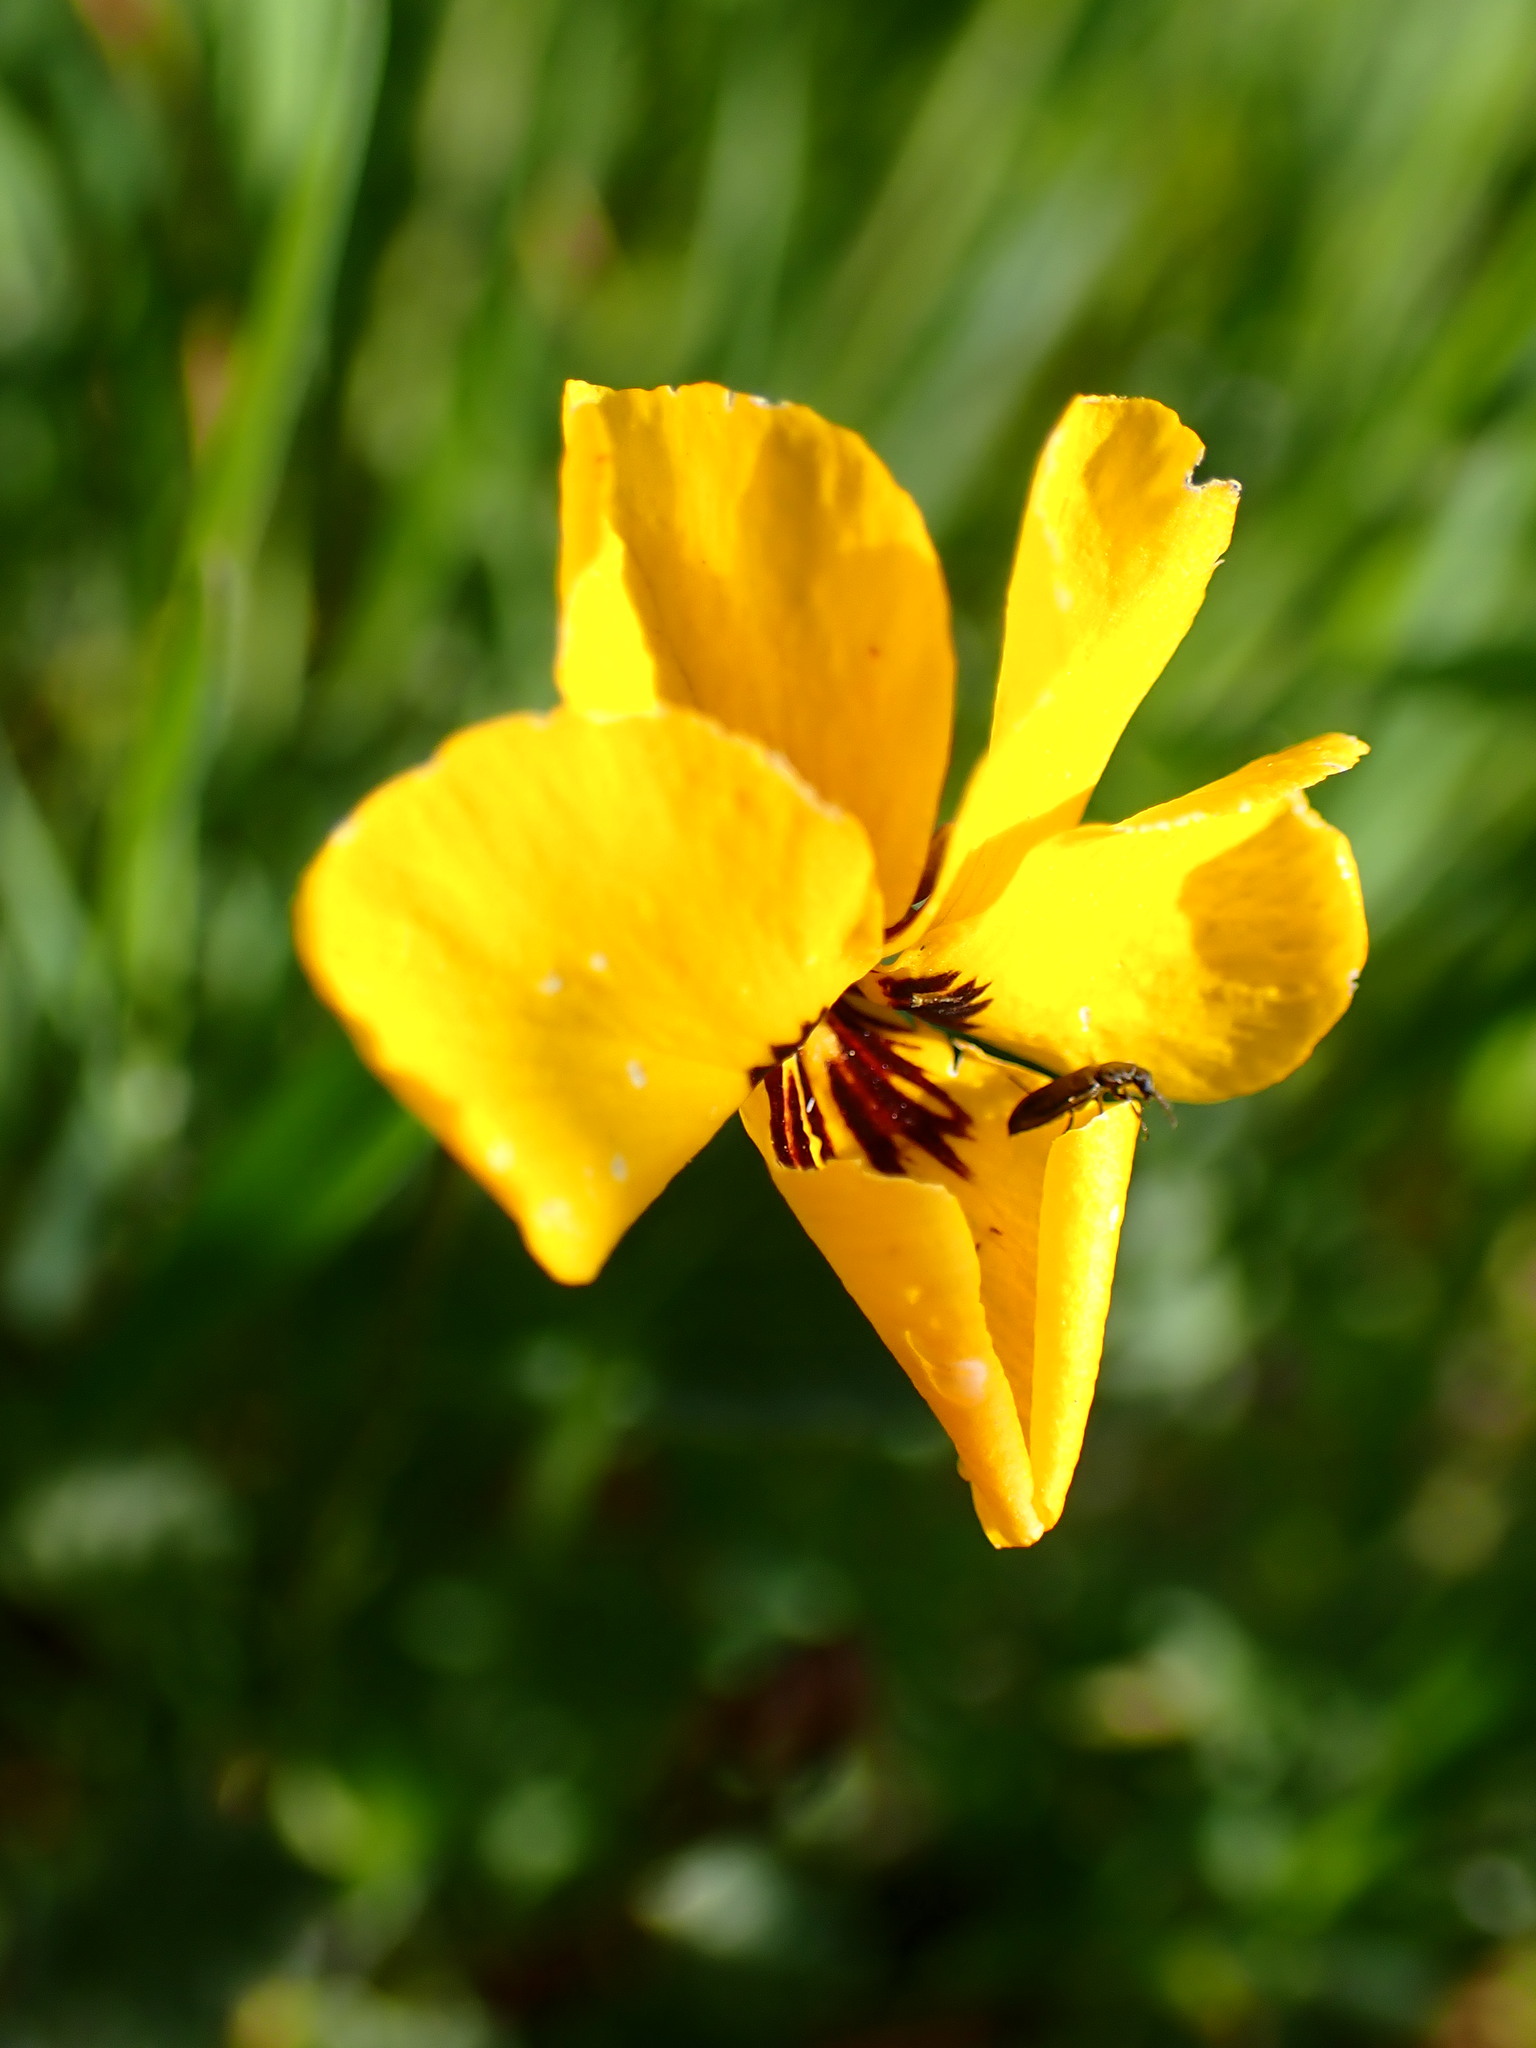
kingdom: Plantae
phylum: Tracheophyta
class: Magnoliopsida
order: Malpighiales
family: Violaceae
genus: Viola
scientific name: Viola pedunculata
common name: California golden violet
